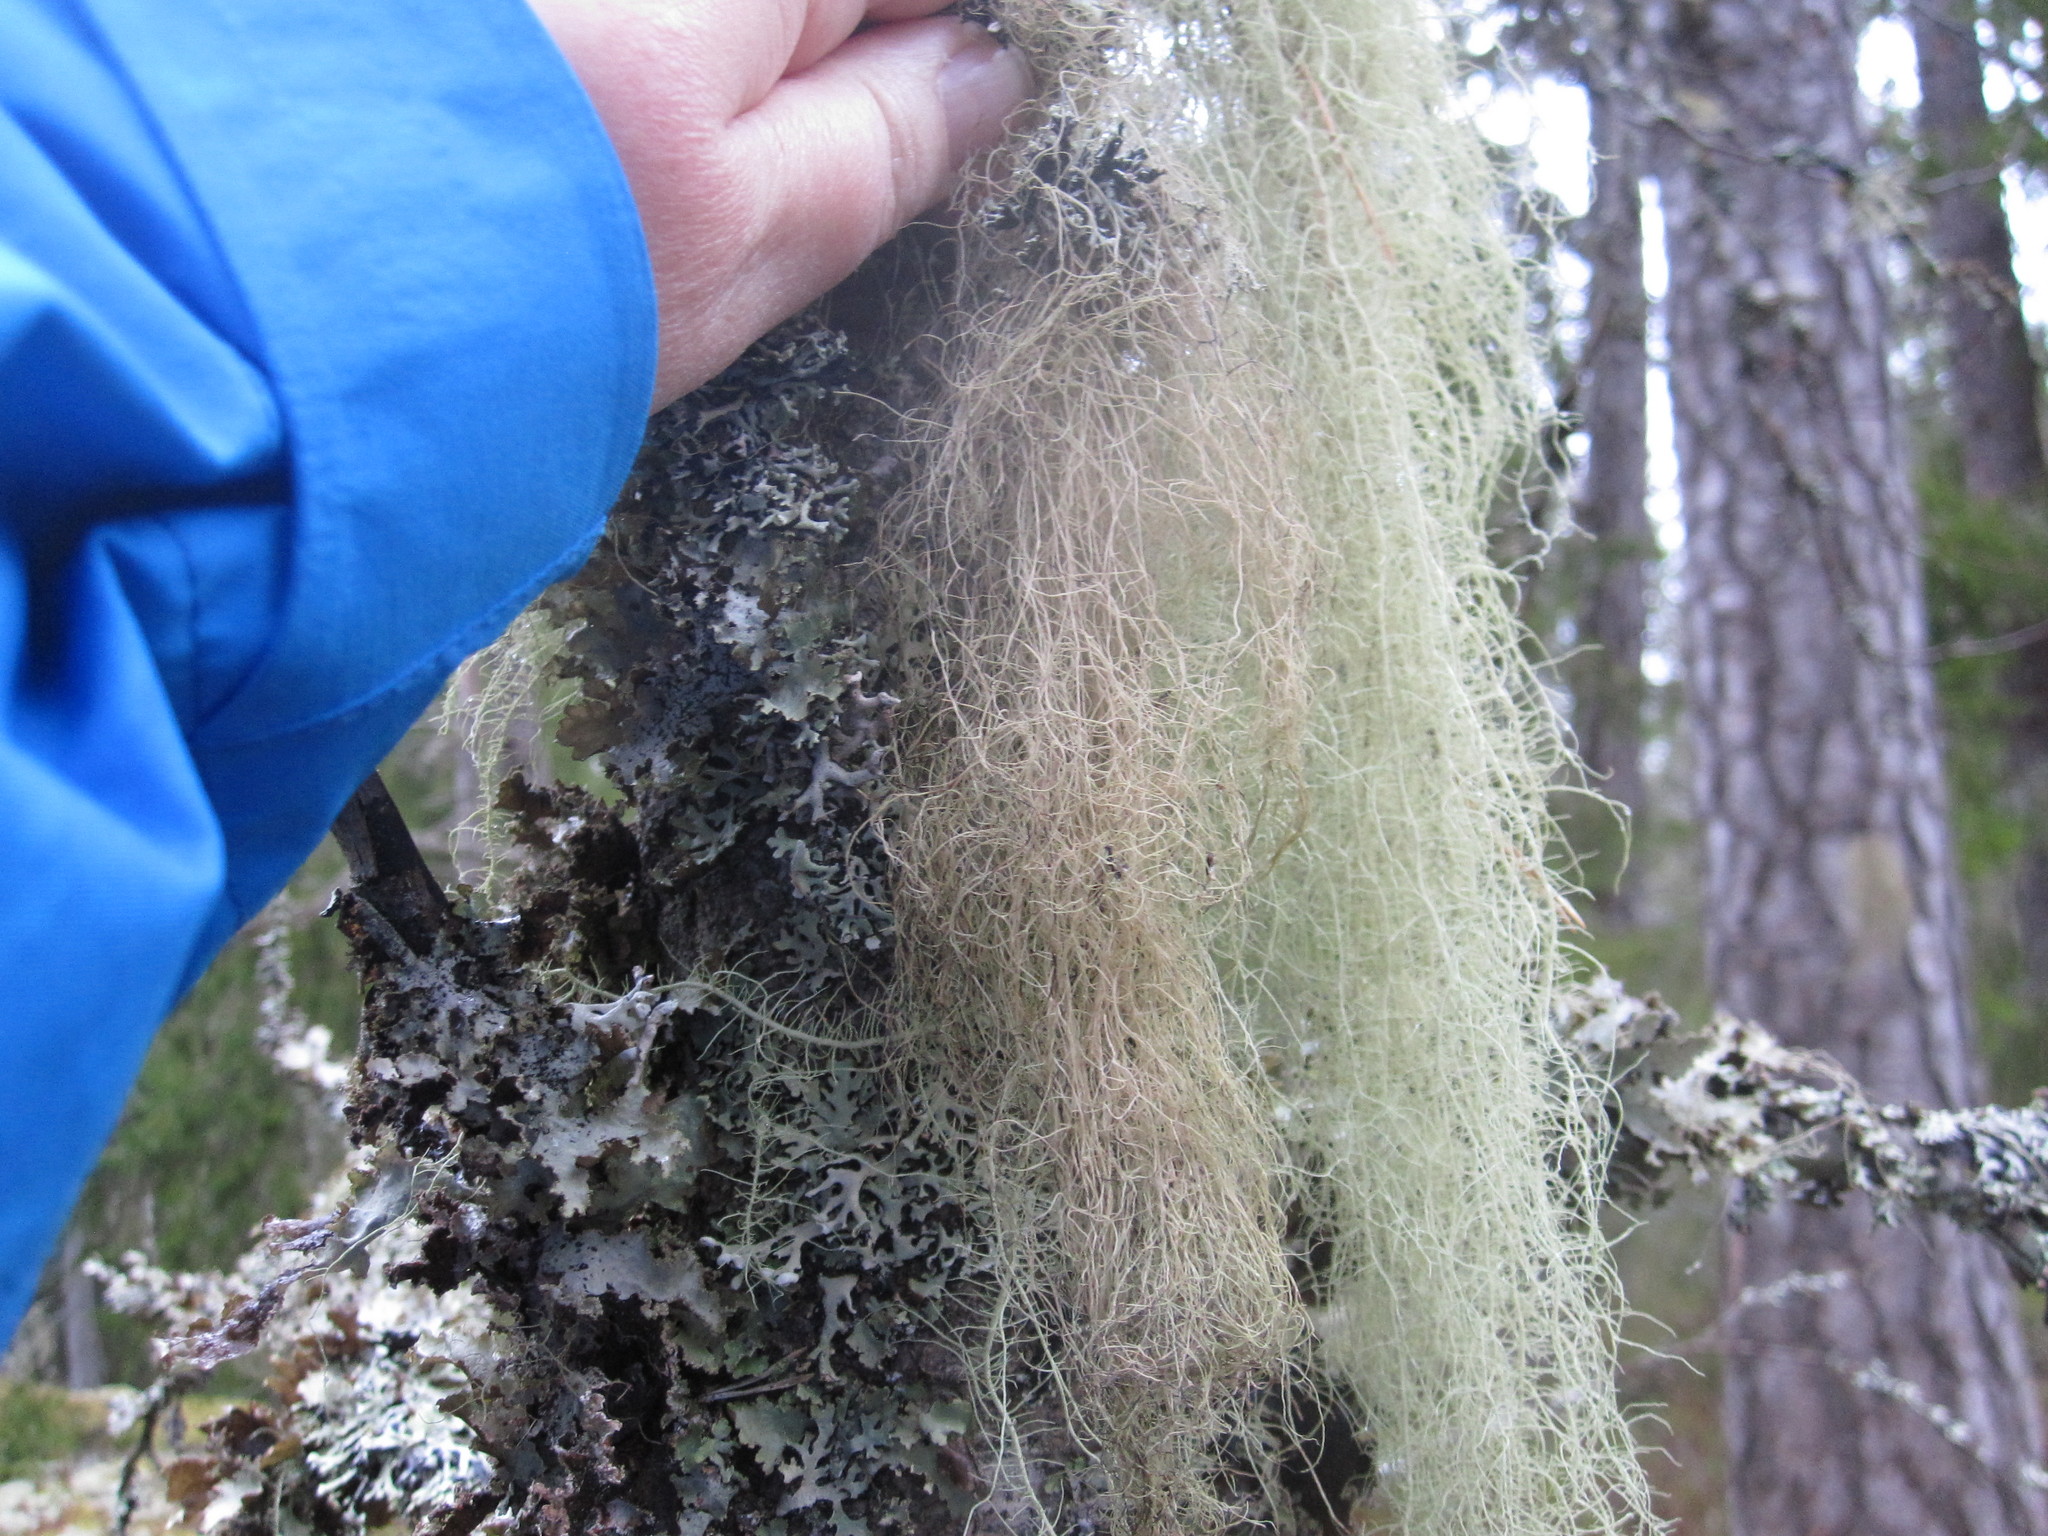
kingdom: Fungi
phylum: Ascomycota
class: Lecanoromycetes
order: Lecanorales
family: Parmeliaceae
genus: Usnea
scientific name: Usnea dasopoga
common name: Fishbone beard lichen
